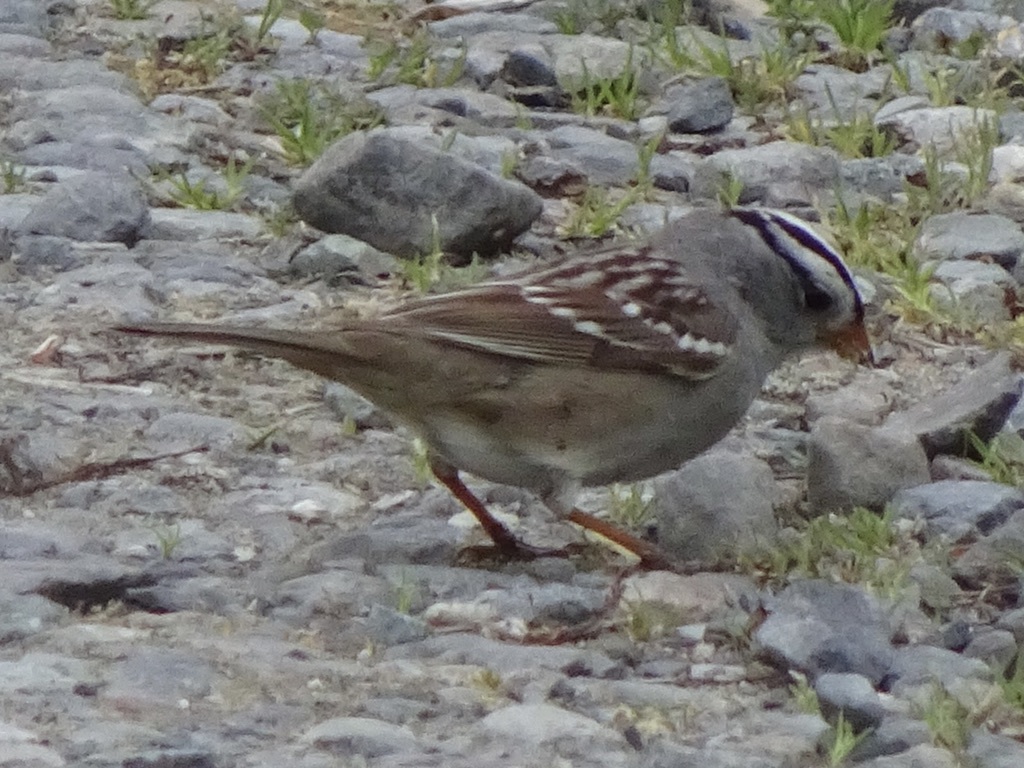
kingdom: Animalia
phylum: Chordata
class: Aves
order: Passeriformes
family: Passerellidae
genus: Zonotrichia
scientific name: Zonotrichia leucophrys
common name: White-crowned sparrow
